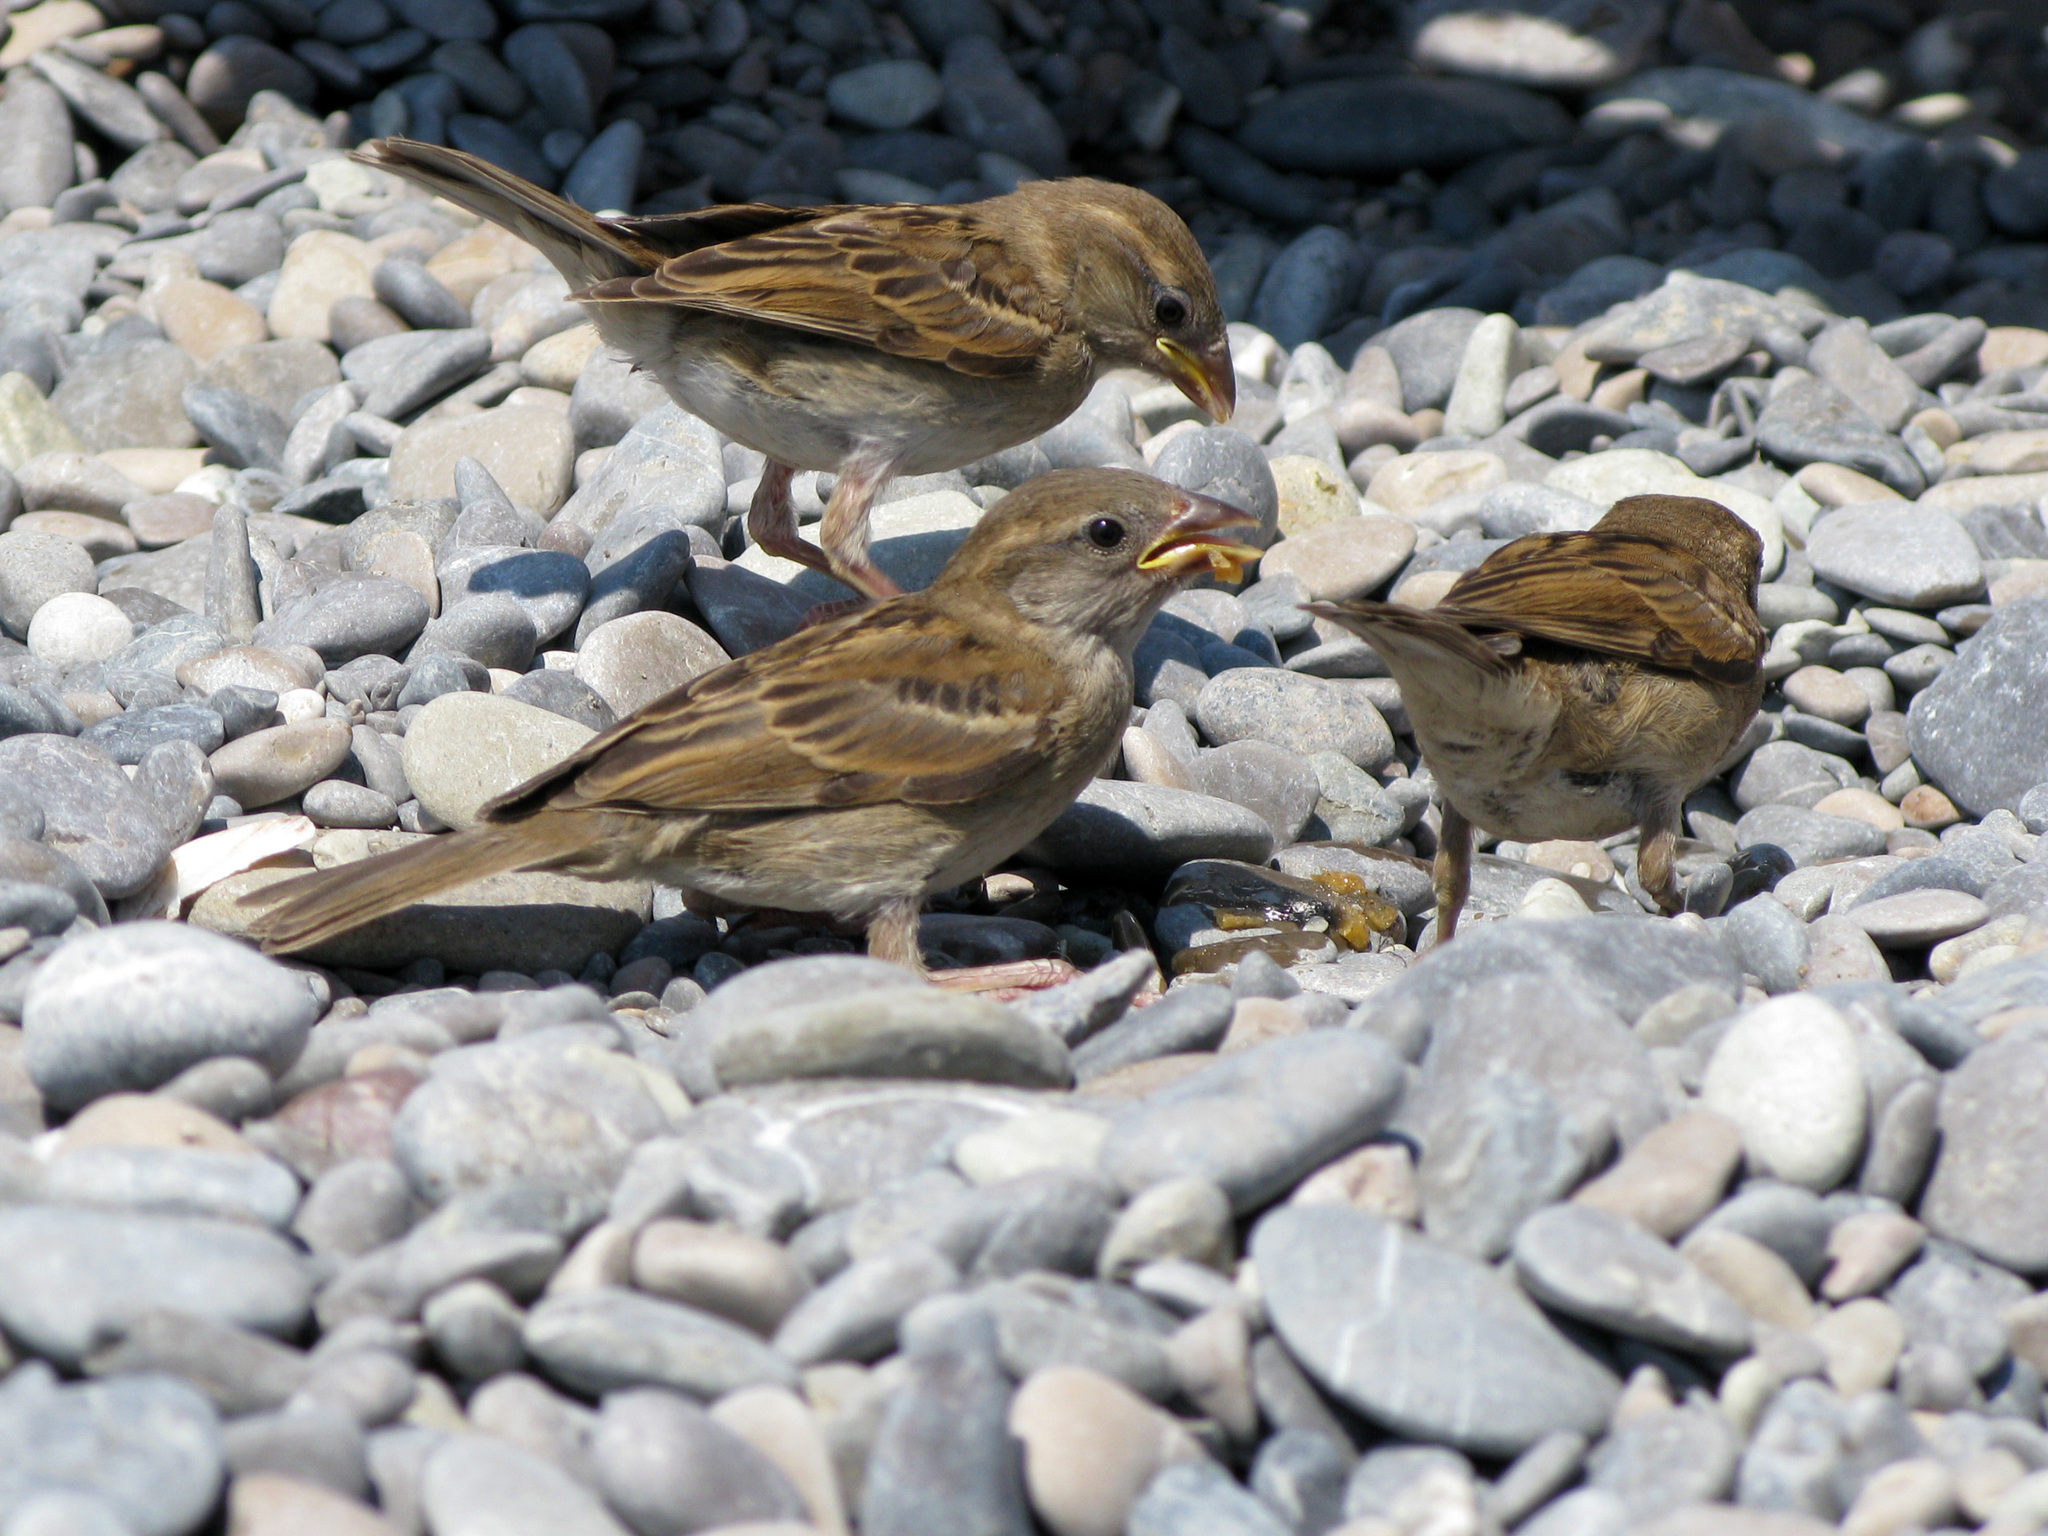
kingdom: Animalia
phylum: Chordata
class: Aves
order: Passeriformes
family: Passeridae
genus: Passer
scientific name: Passer domesticus
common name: House sparrow
